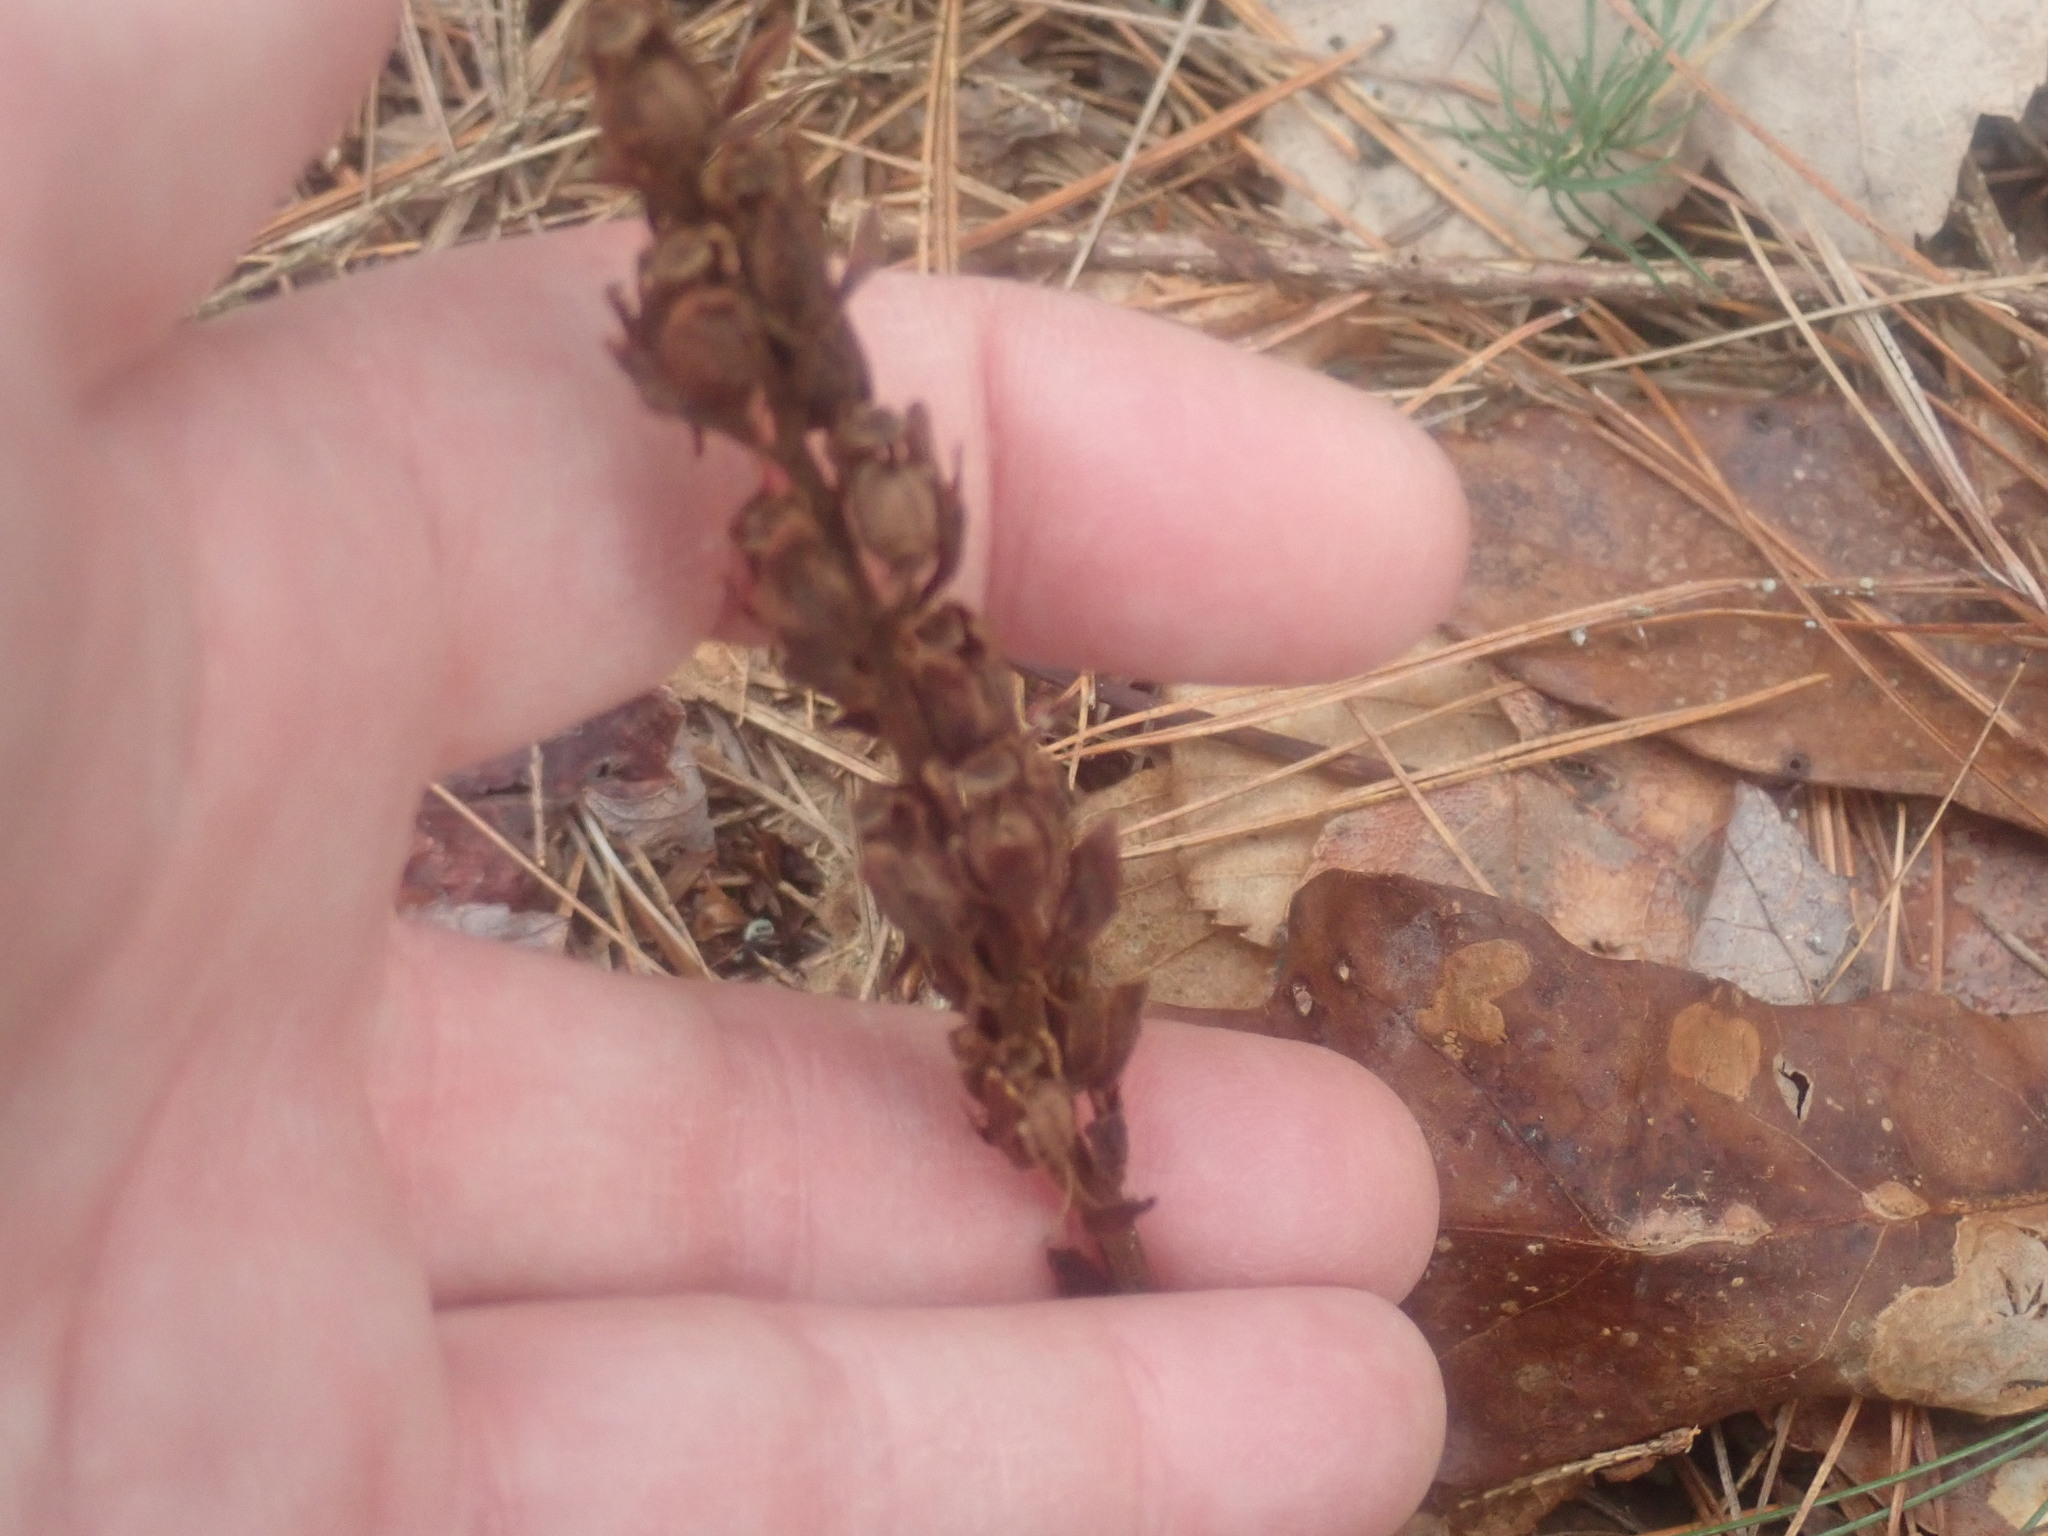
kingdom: Plantae
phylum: Tracheophyta
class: Magnoliopsida
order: Ericales
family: Ericaceae
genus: Hypopitys
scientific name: Hypopitys monotropa
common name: Yellow bird's-nest
